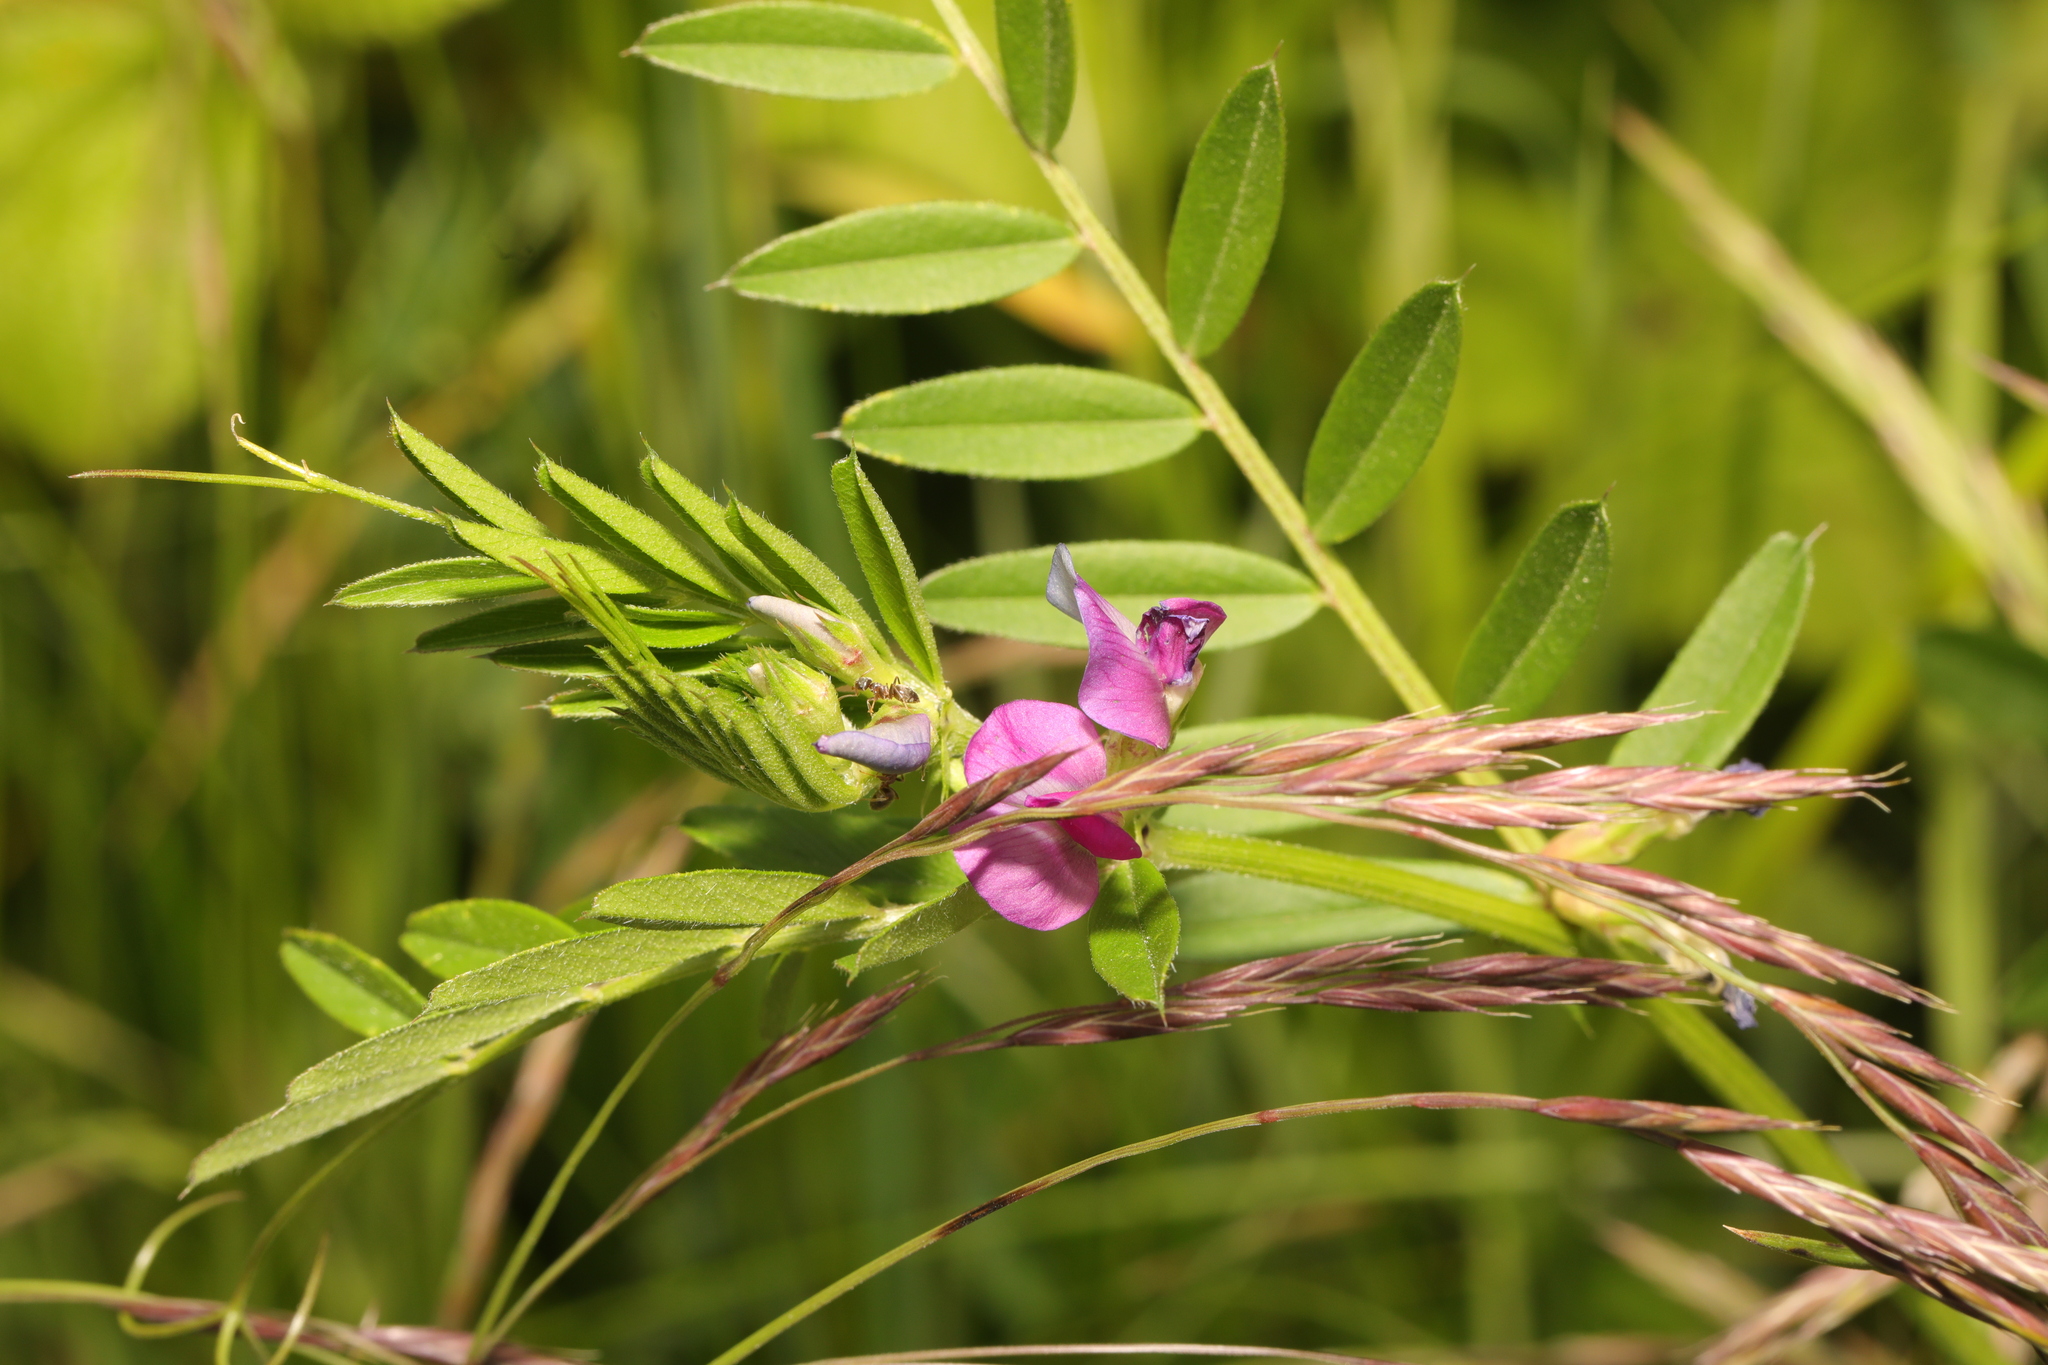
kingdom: Plantae
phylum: Tracheophyta
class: Magnoliopsida
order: Fabales
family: Fabaceae
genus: Vicia
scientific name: Vicia sativa
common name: Garden vetch
